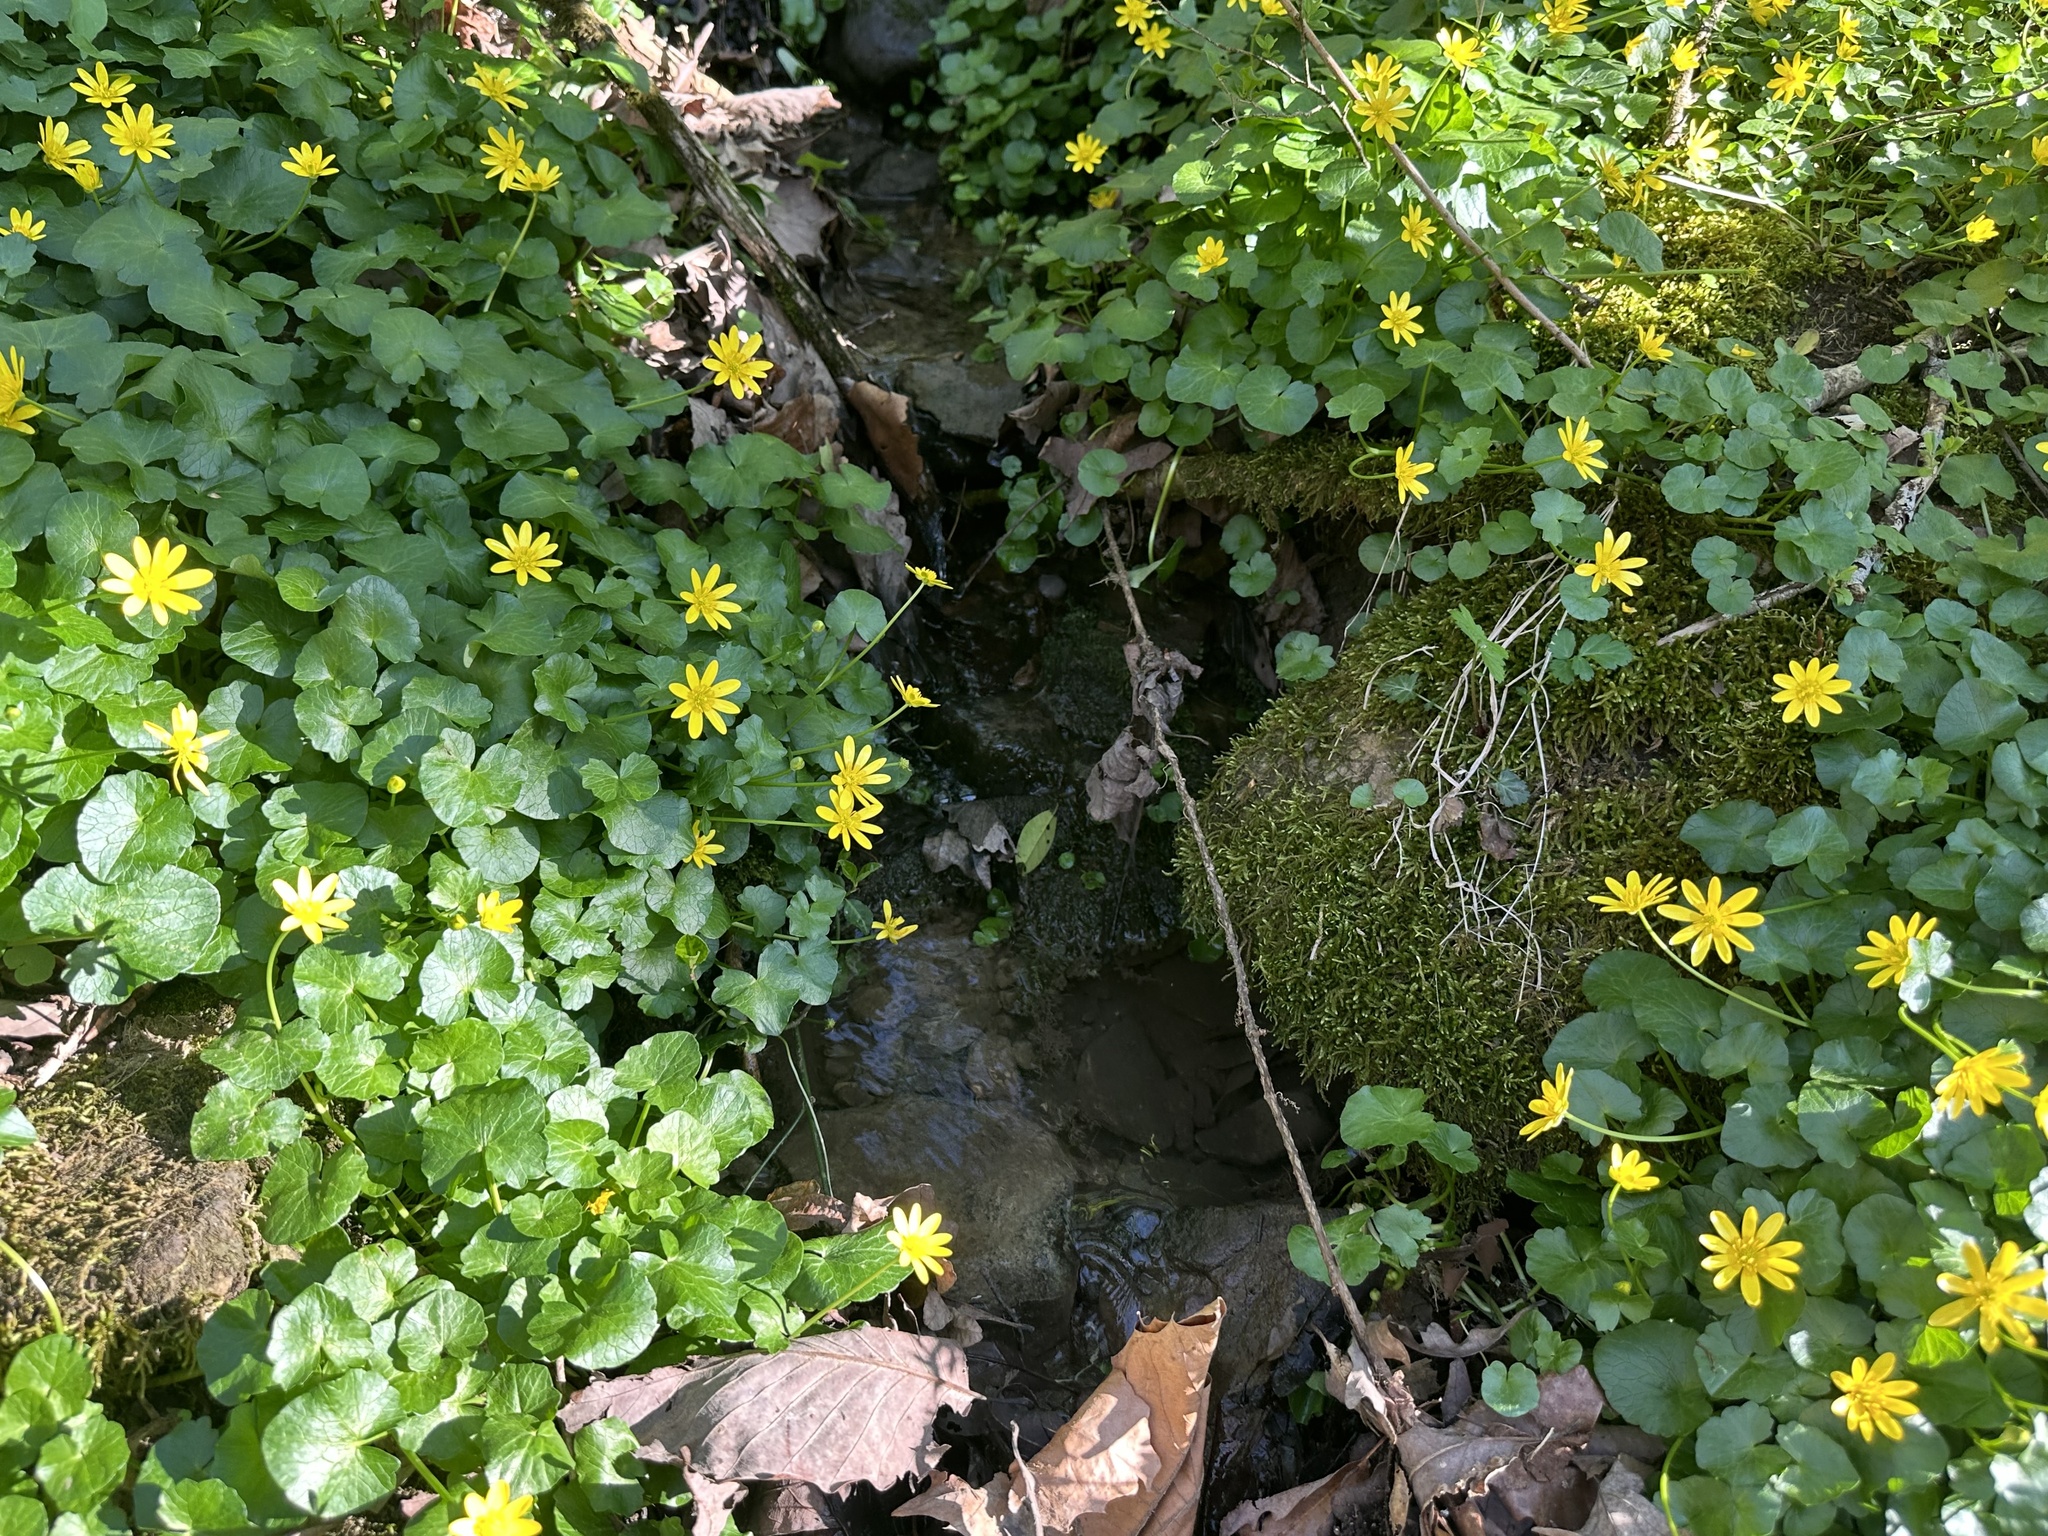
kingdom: Plantae
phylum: Tracheophyta
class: Magnoliopsida
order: Ranunculales
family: Ranunculaceae
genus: Ficaria
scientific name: Ficaria verna
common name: Lesser celandine
